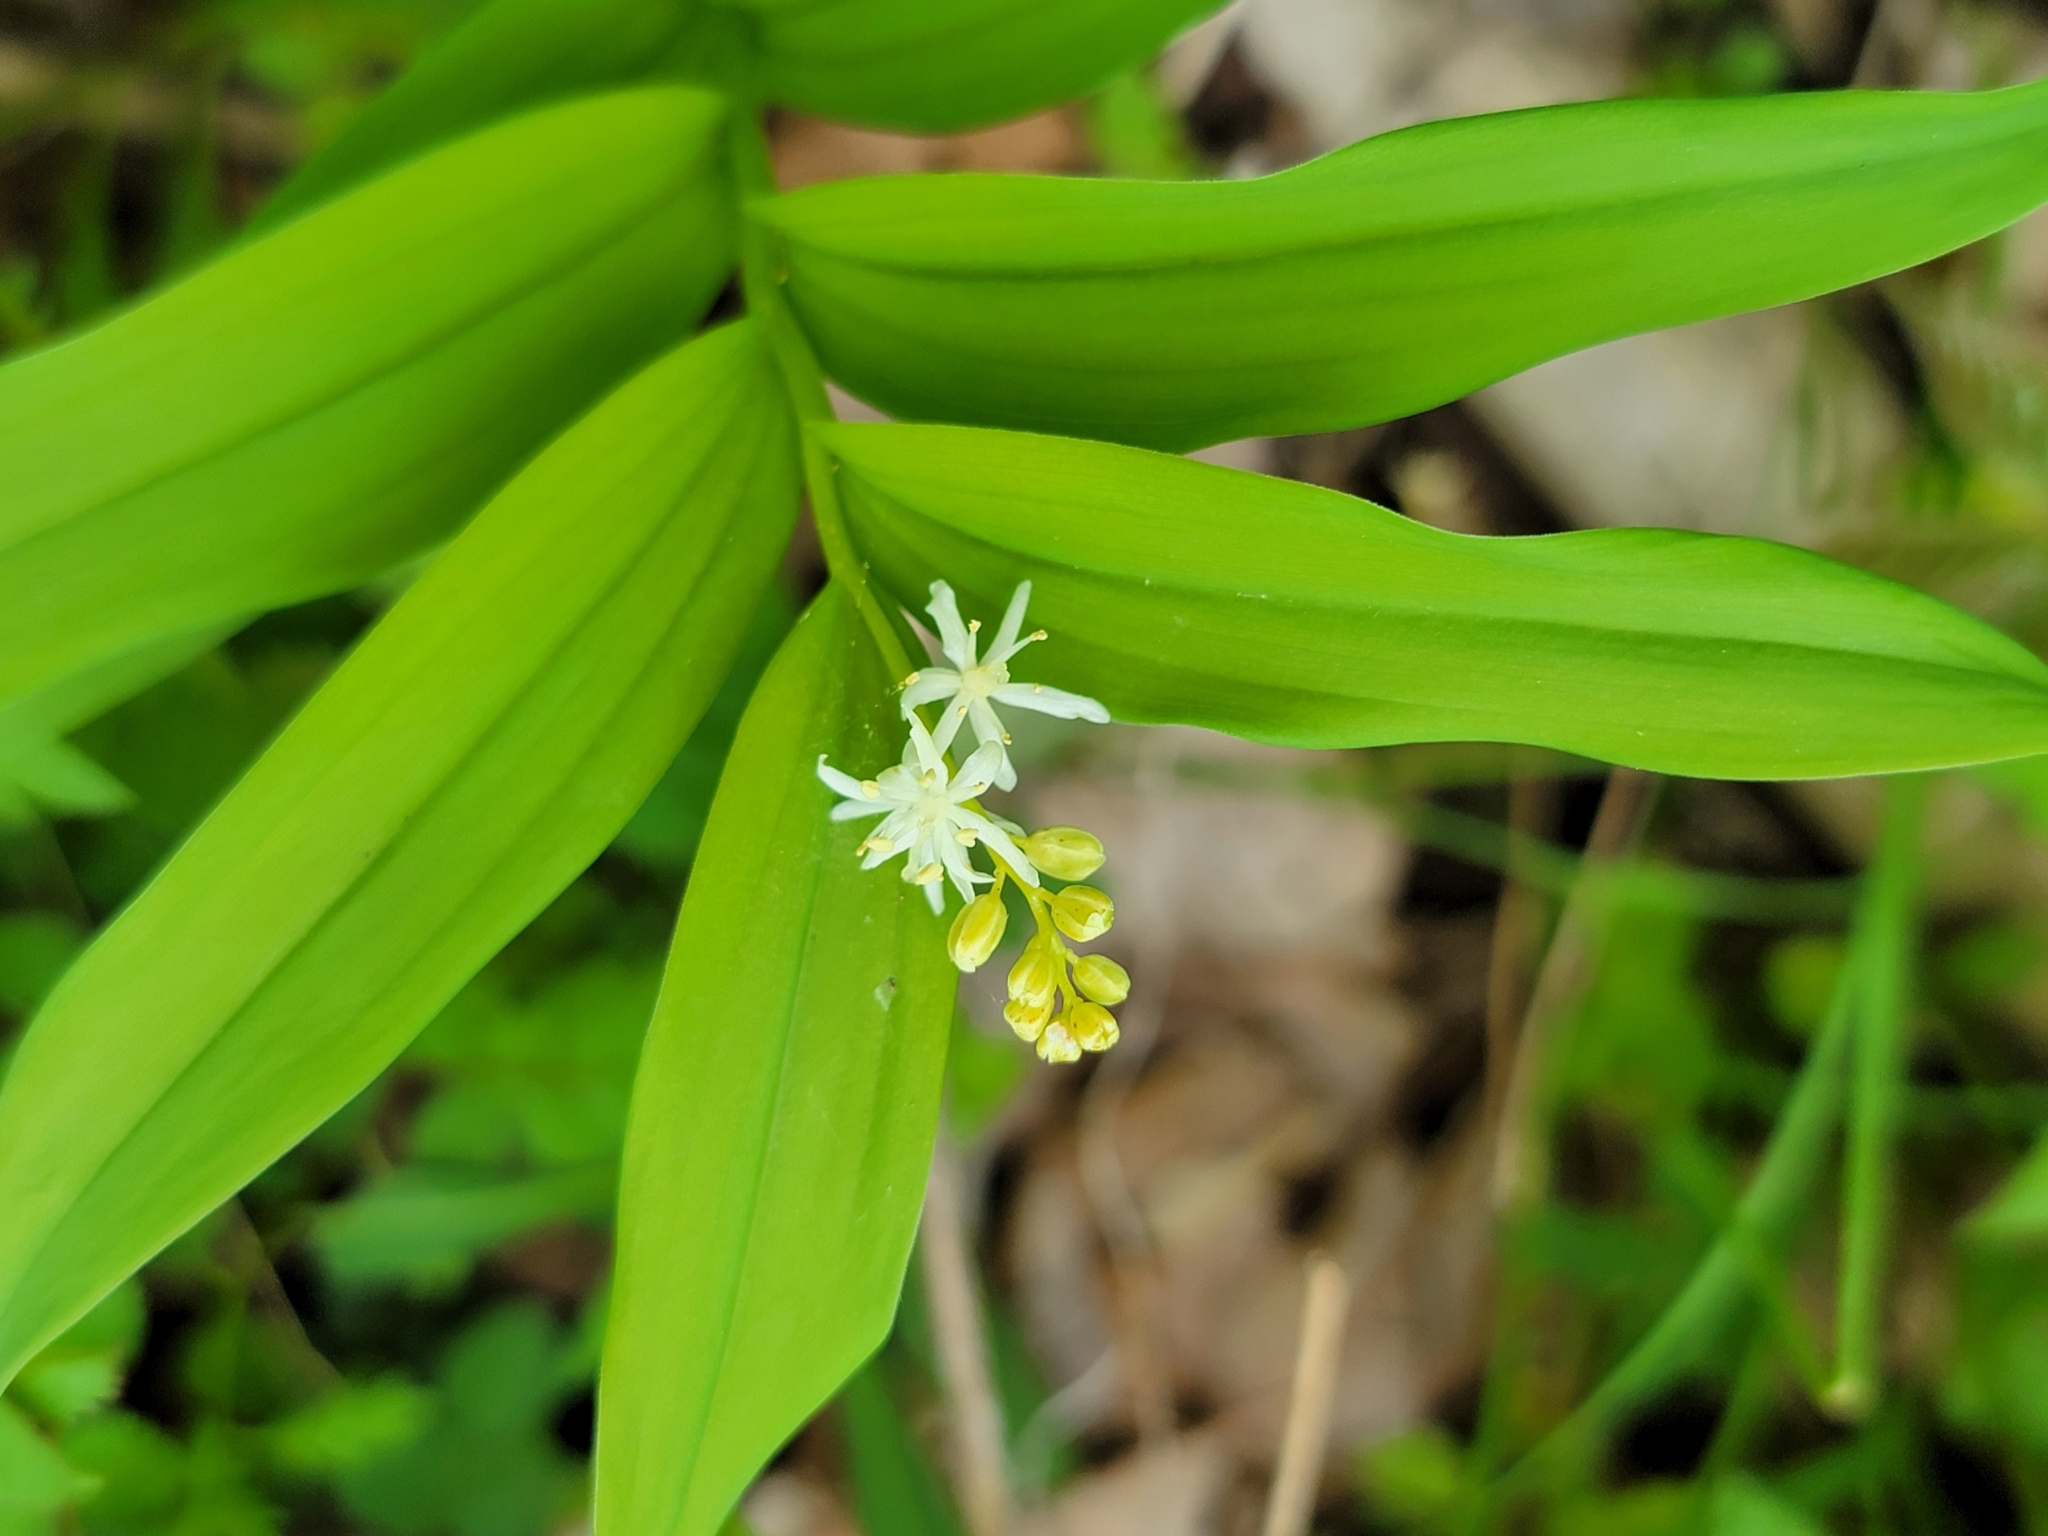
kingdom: Plantae
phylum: Tracheophyta
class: Liliopsida
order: Asparagales
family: Asparagaceae
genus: Maianthemum
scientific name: Maianthemum stellatum
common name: Little false solomon's seal
